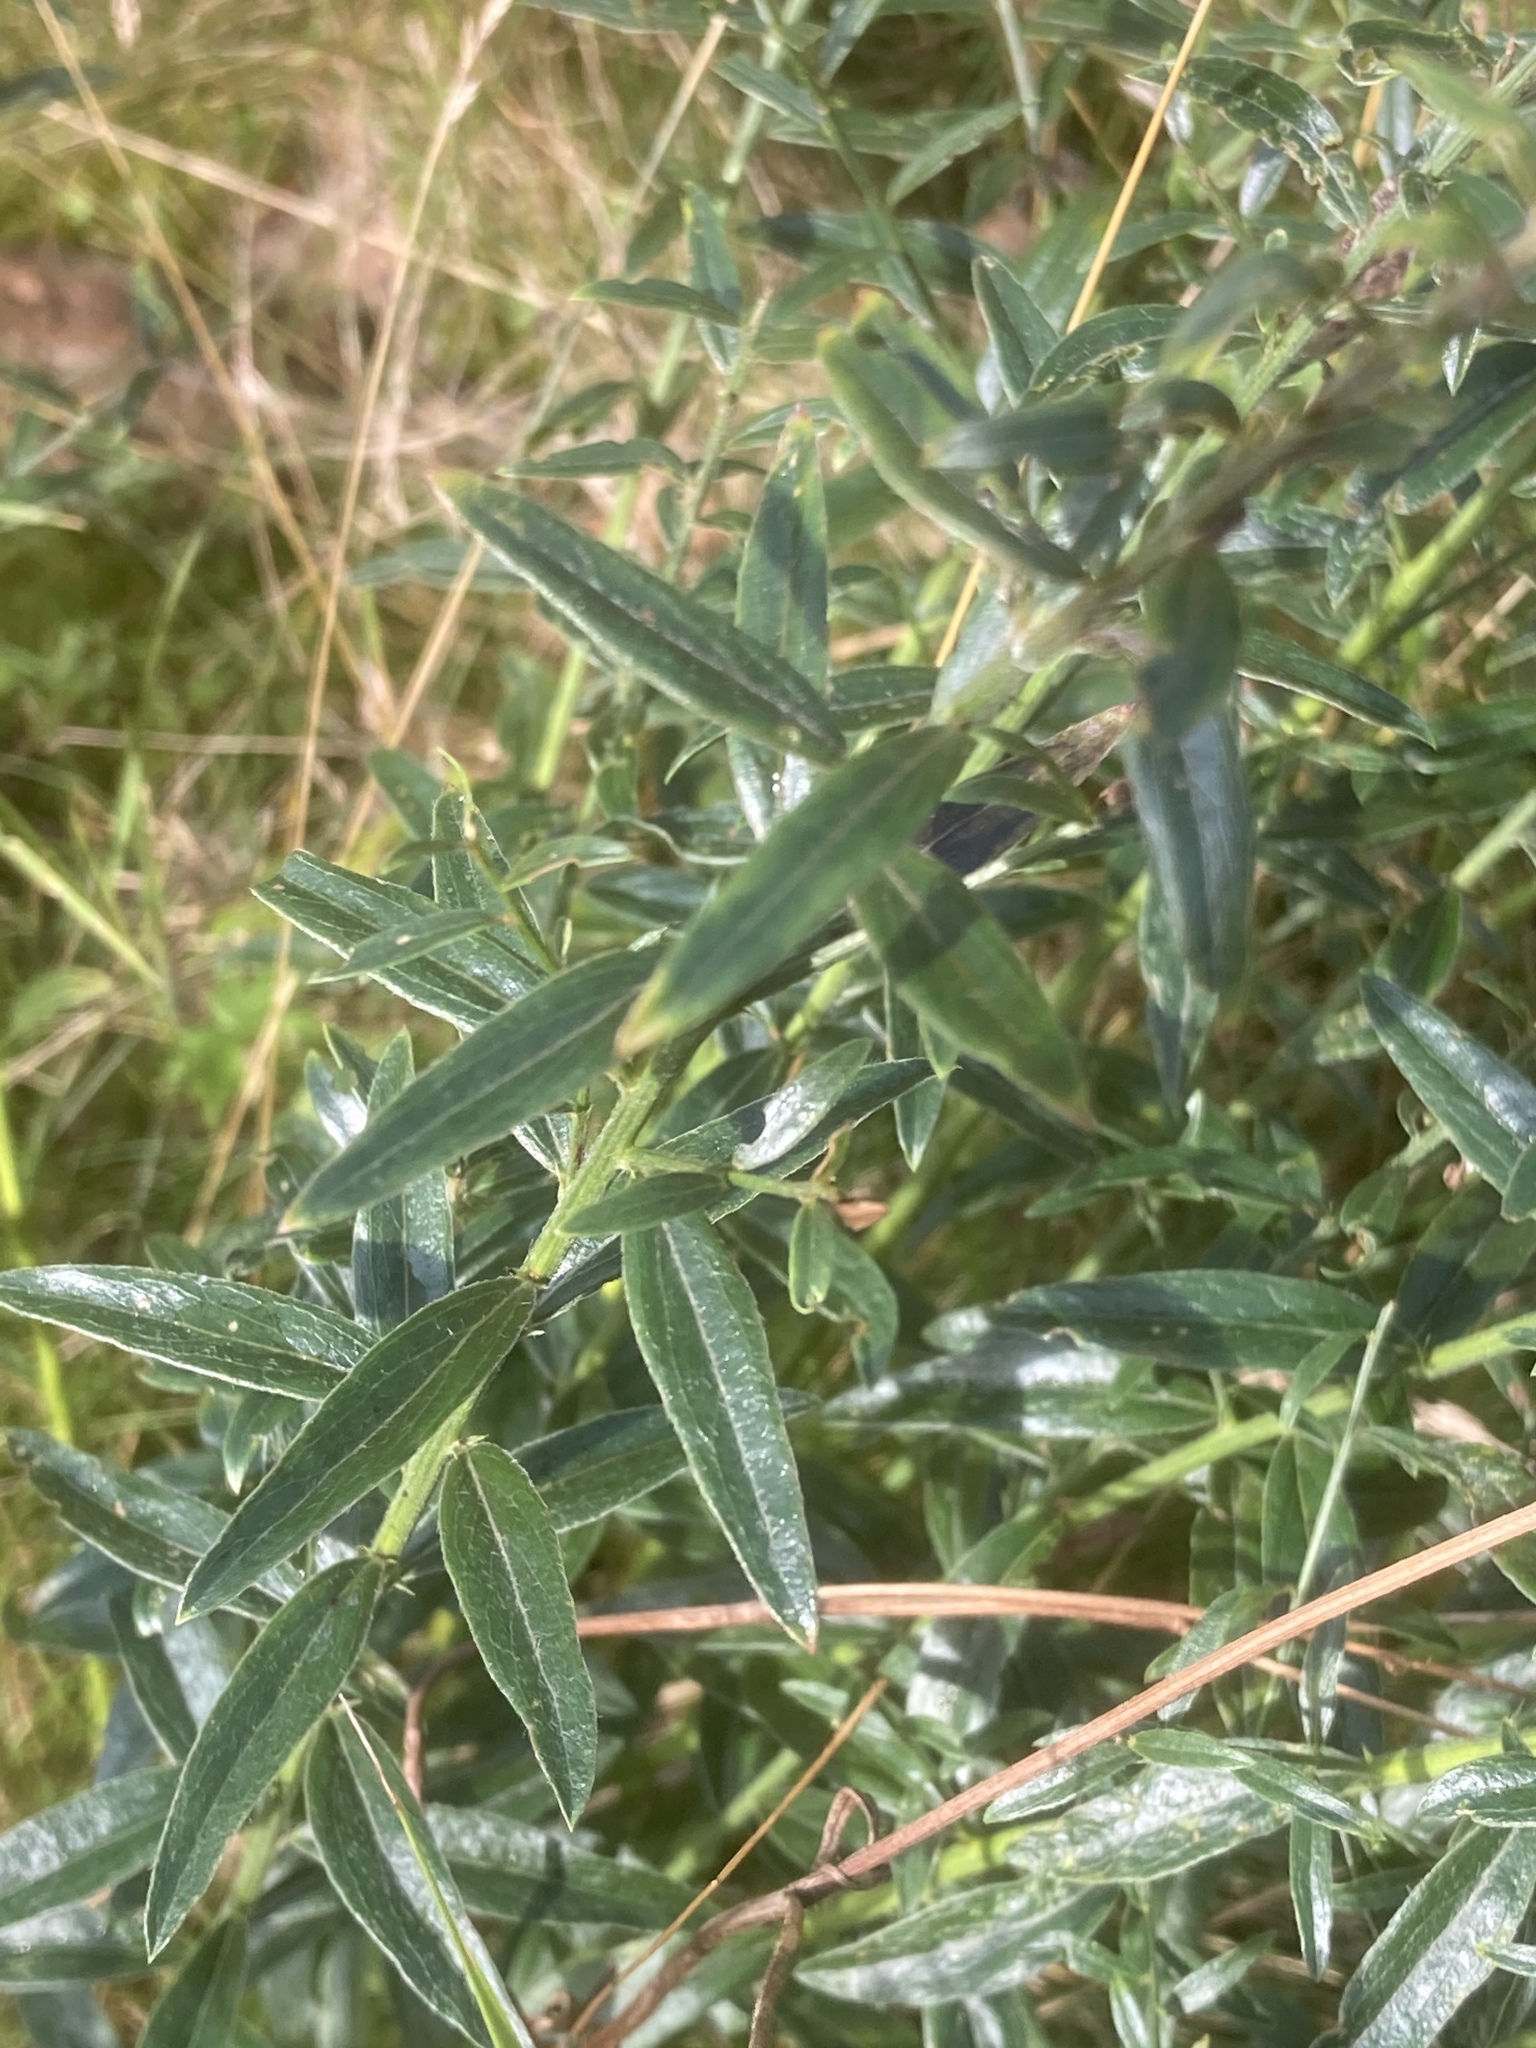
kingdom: Plantae
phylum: Tracheophyta
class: Magnoliopsida
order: Fabales
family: Fabaceae
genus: Genista
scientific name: Genista tinctoria
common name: Dyer's greenweed
